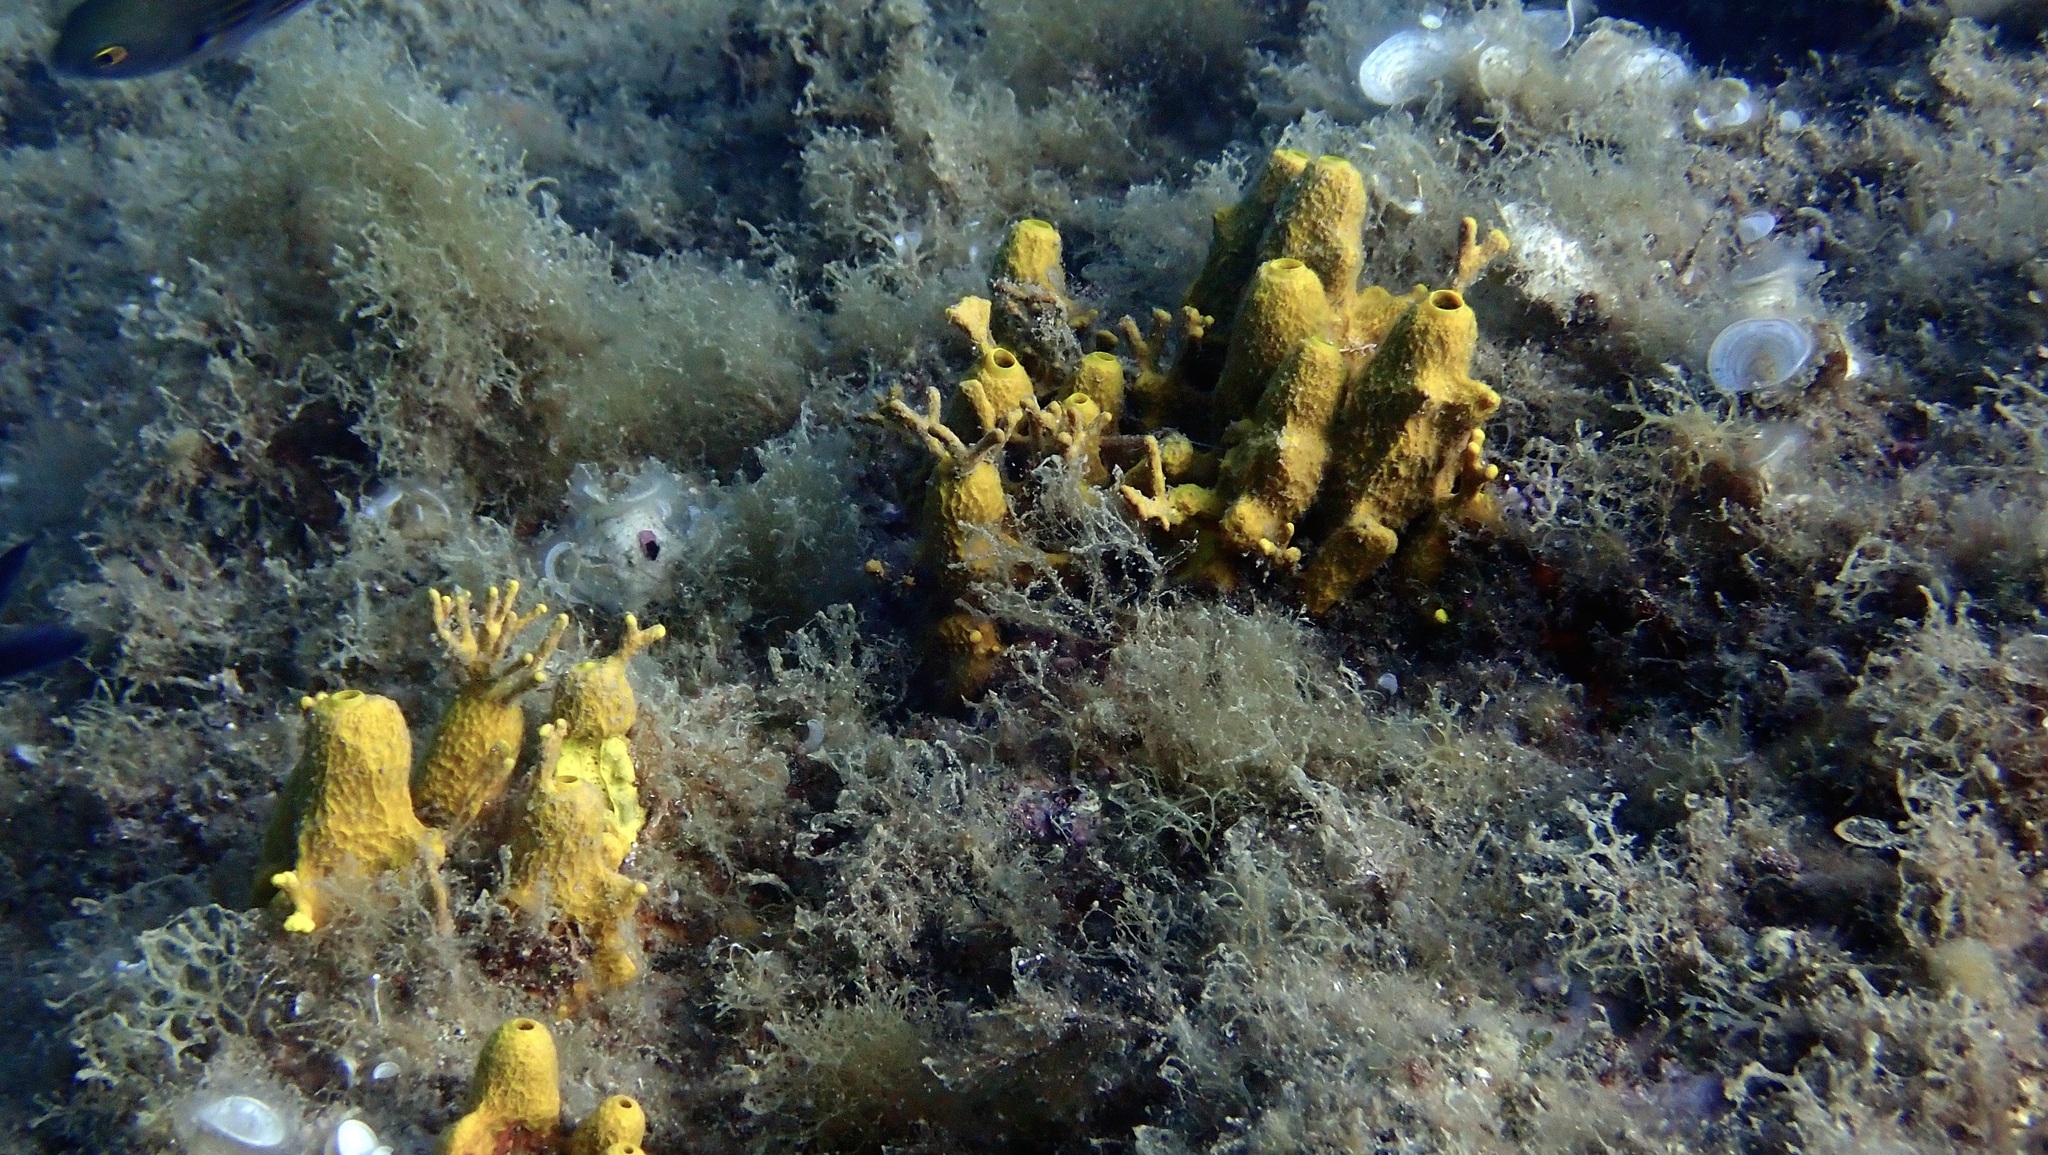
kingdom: Animalia
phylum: Porifera
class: Demospongiae
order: Verongiida
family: Aplysinidae
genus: Aplysina
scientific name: Aplysina aerophoba
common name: Aureate sponge
